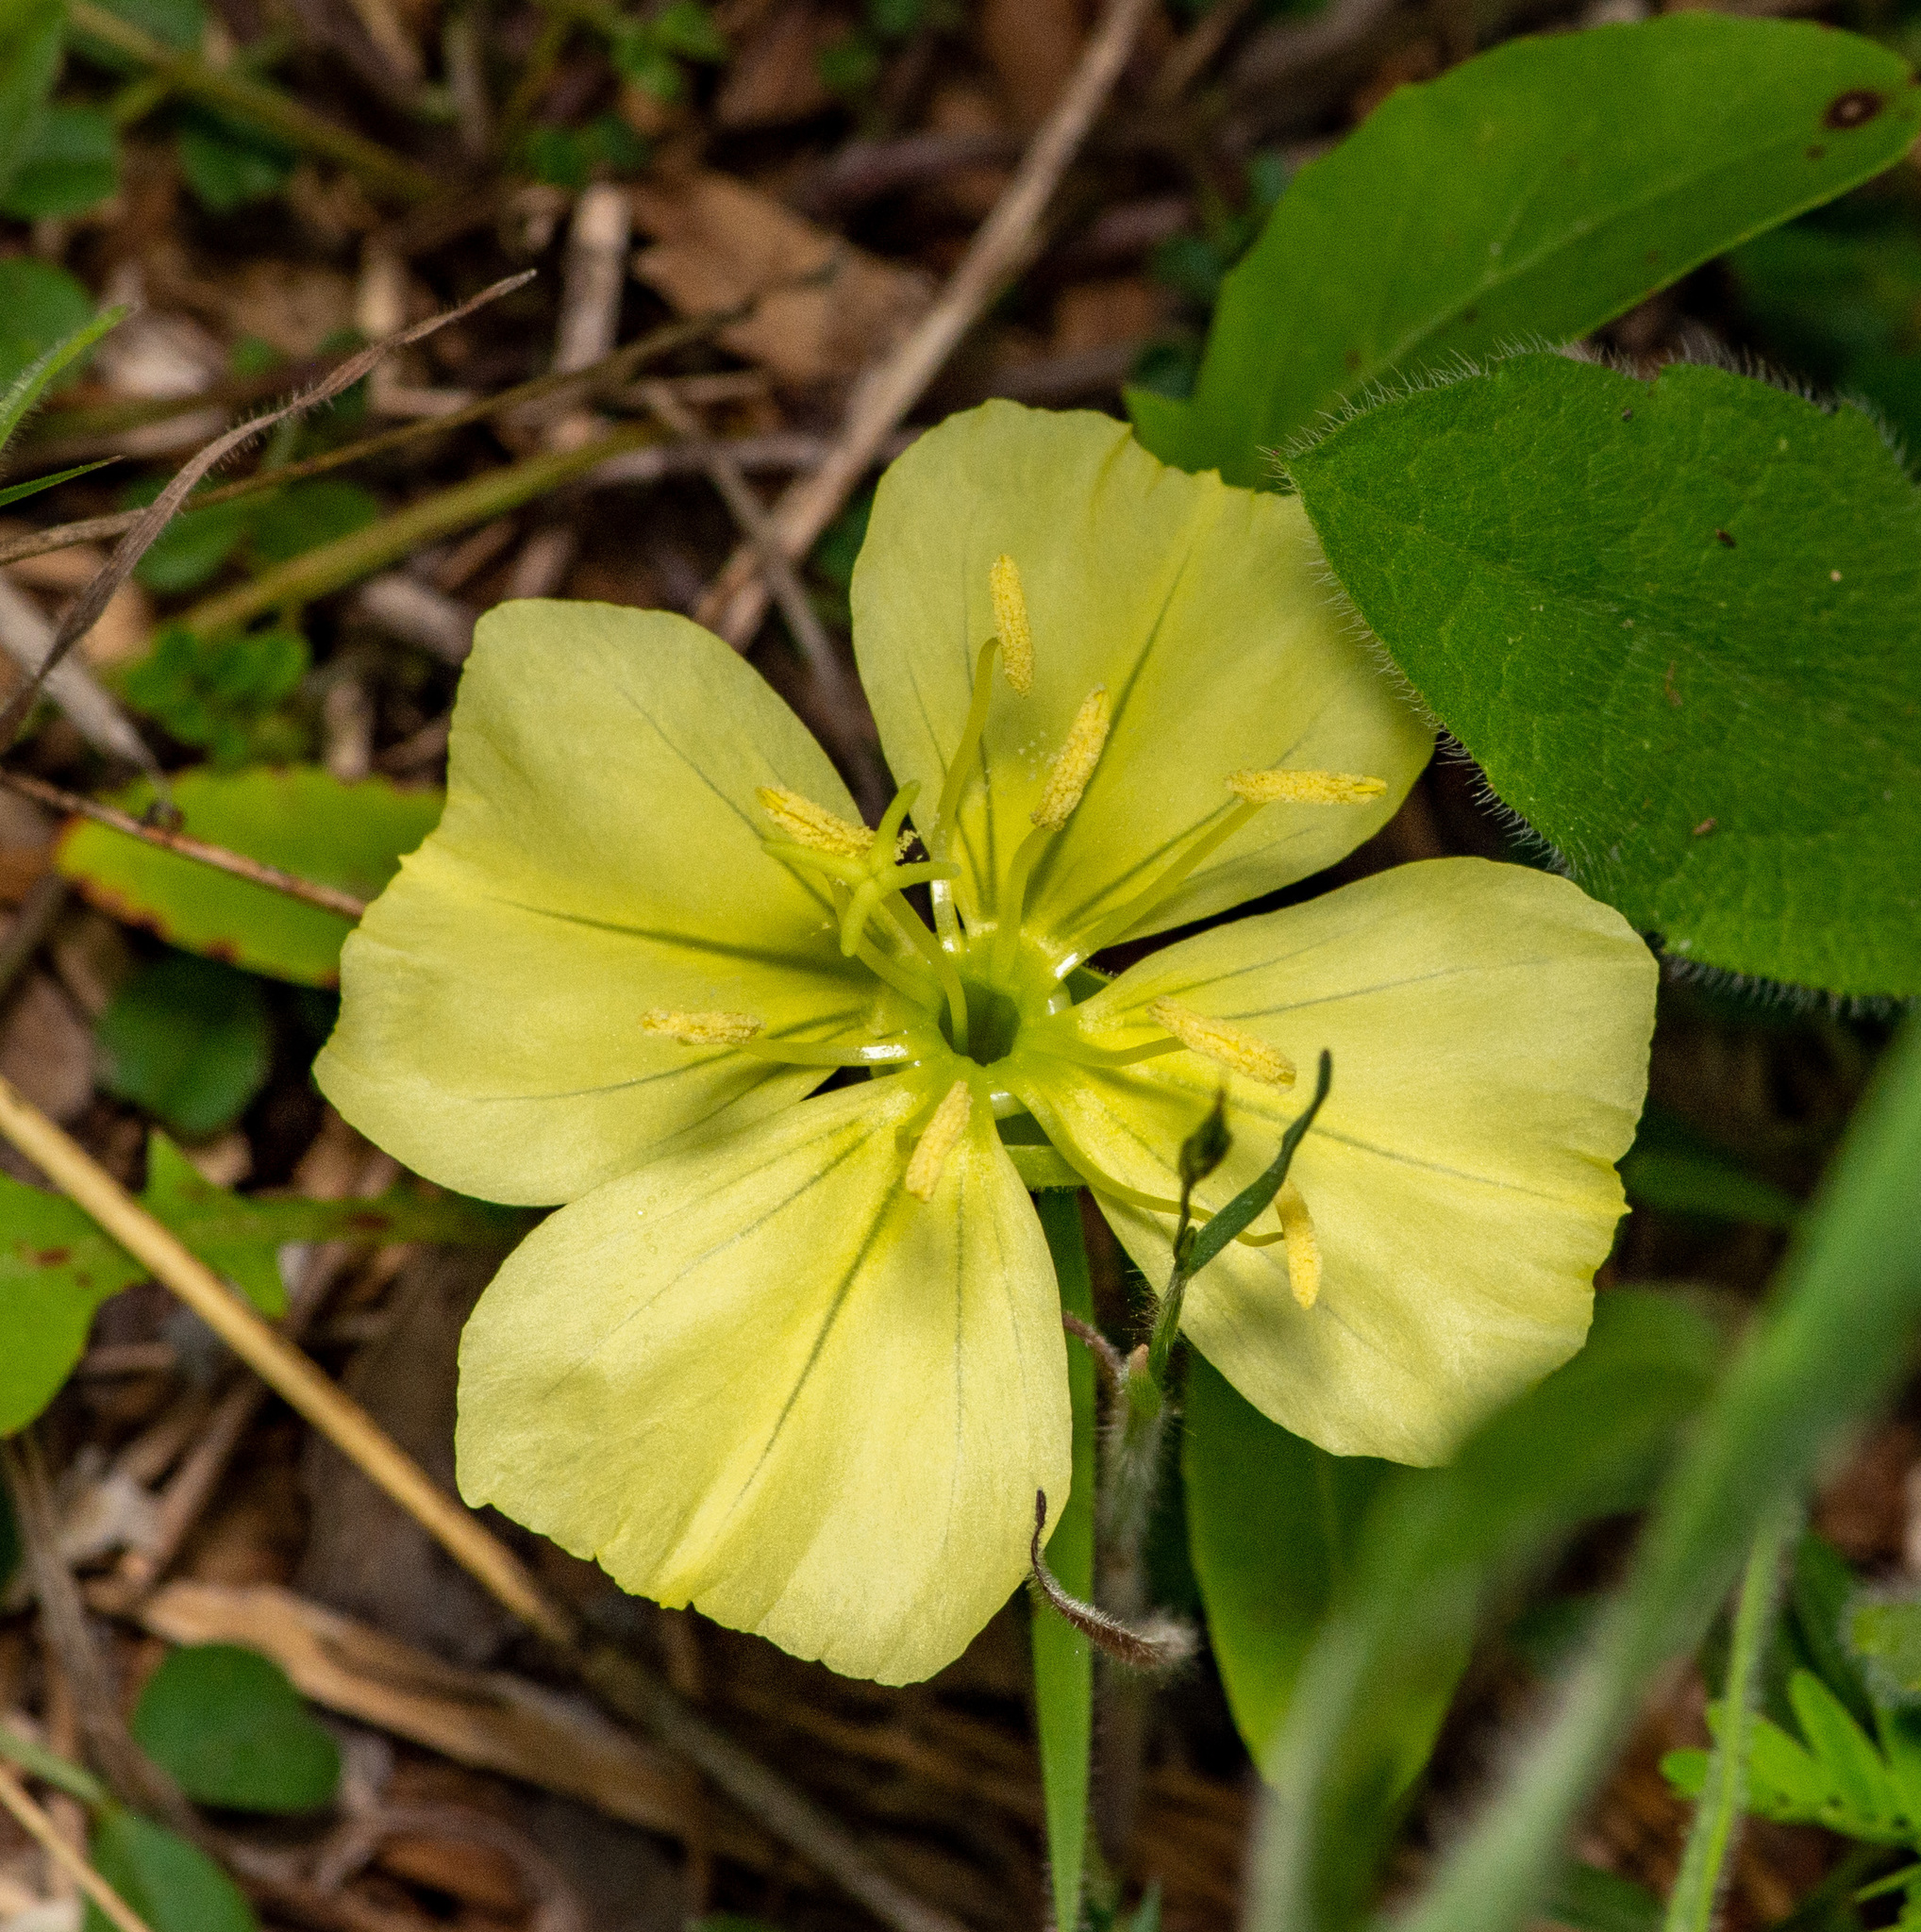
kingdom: Plantae
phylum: Tracheophyta
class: Magnoliopsida
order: Myrtales
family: Onagraceae
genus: Oenothera
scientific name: Oenothera triloba
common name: Sessile evening-primrose
